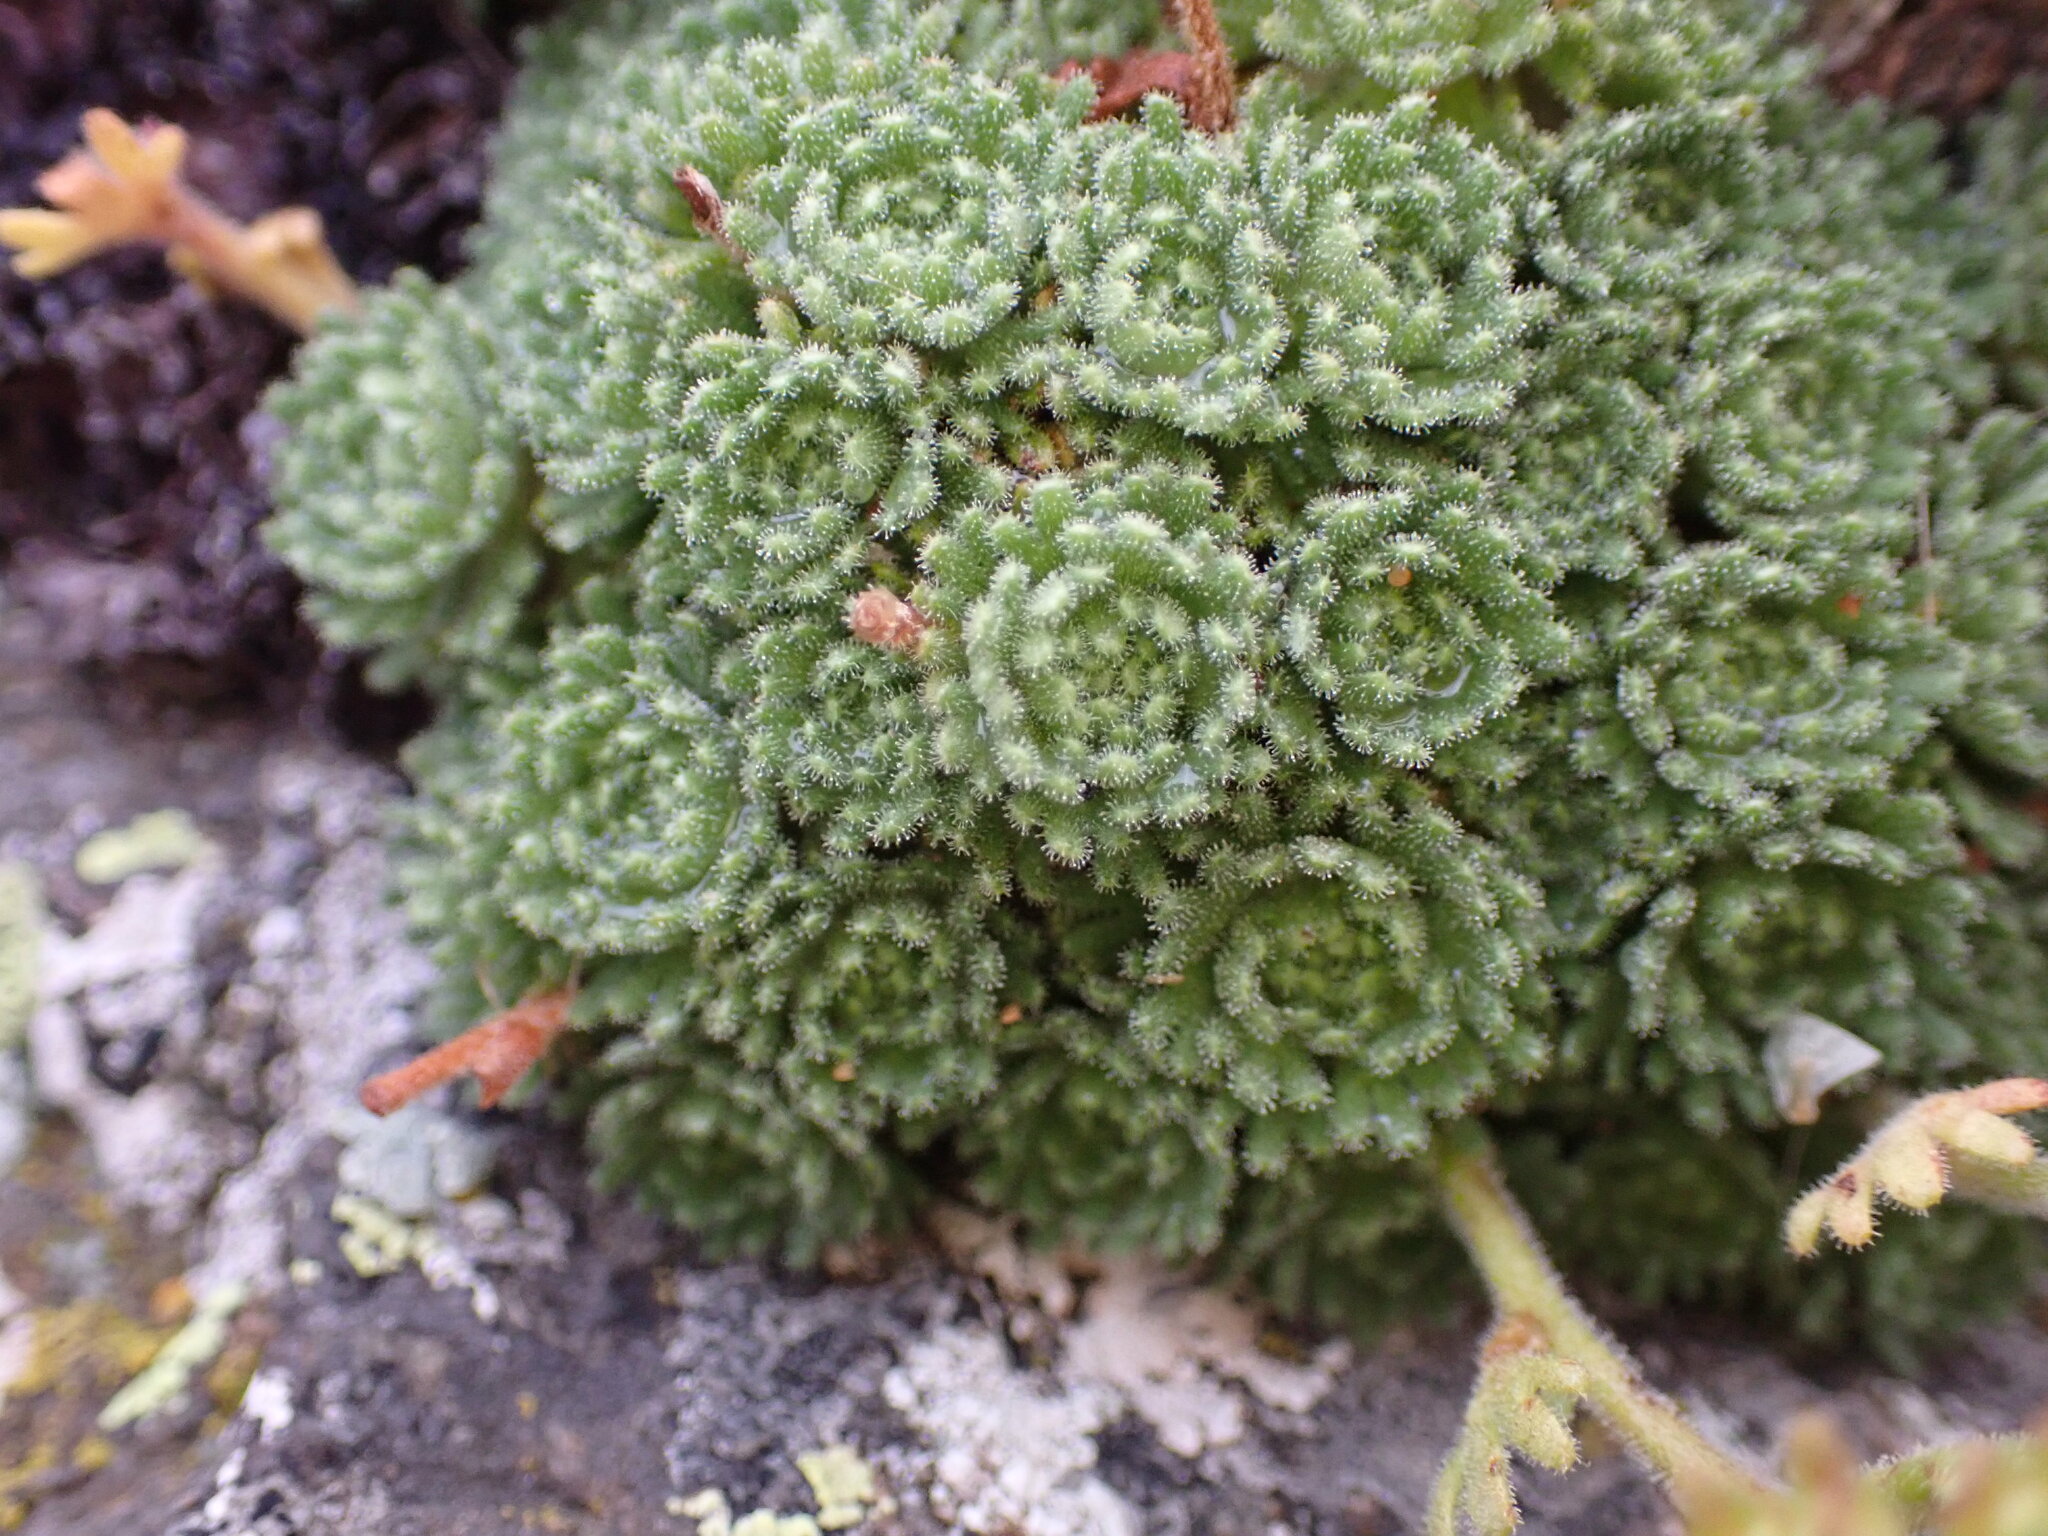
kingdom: Plantae
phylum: Tracheophyta
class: Magnoliopsida
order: Saxifragales
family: Saxifragaceae
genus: Saxifraga
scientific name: Saxifraga pubescens
